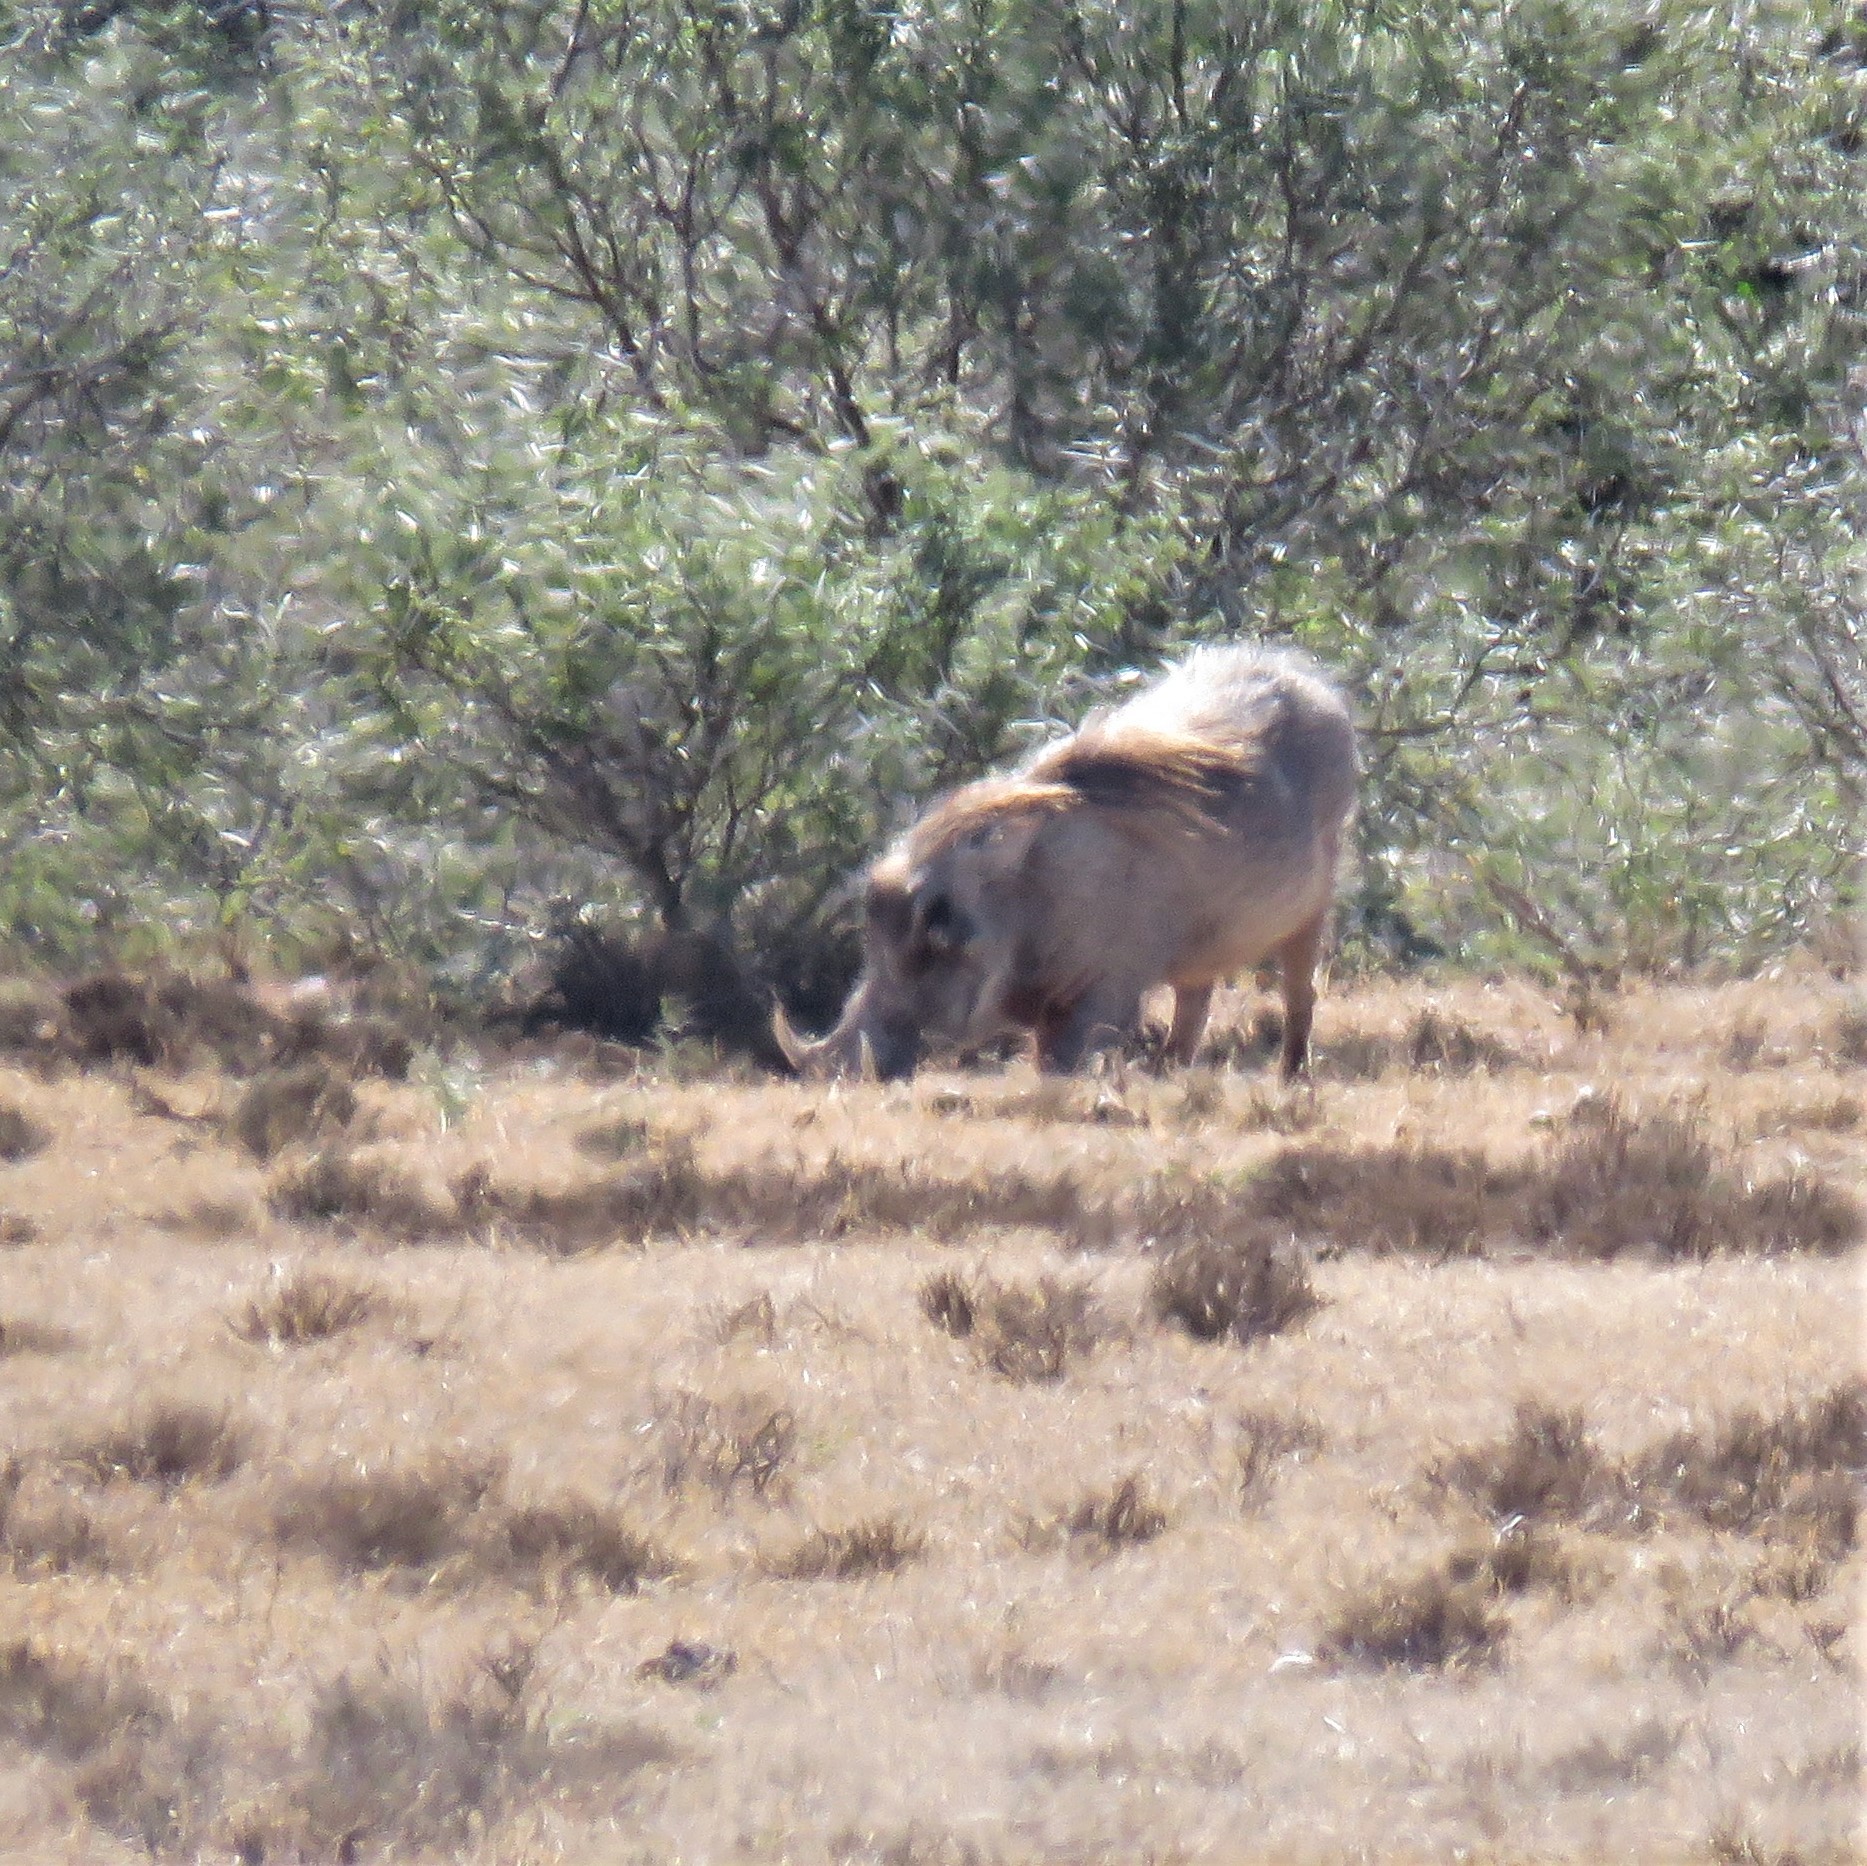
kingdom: Animalia
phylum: Chordata
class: Mammalia
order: Artiodactyla
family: Suidae
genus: Phacochoerus
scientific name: Phacochoerus africanus
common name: Common warthog
